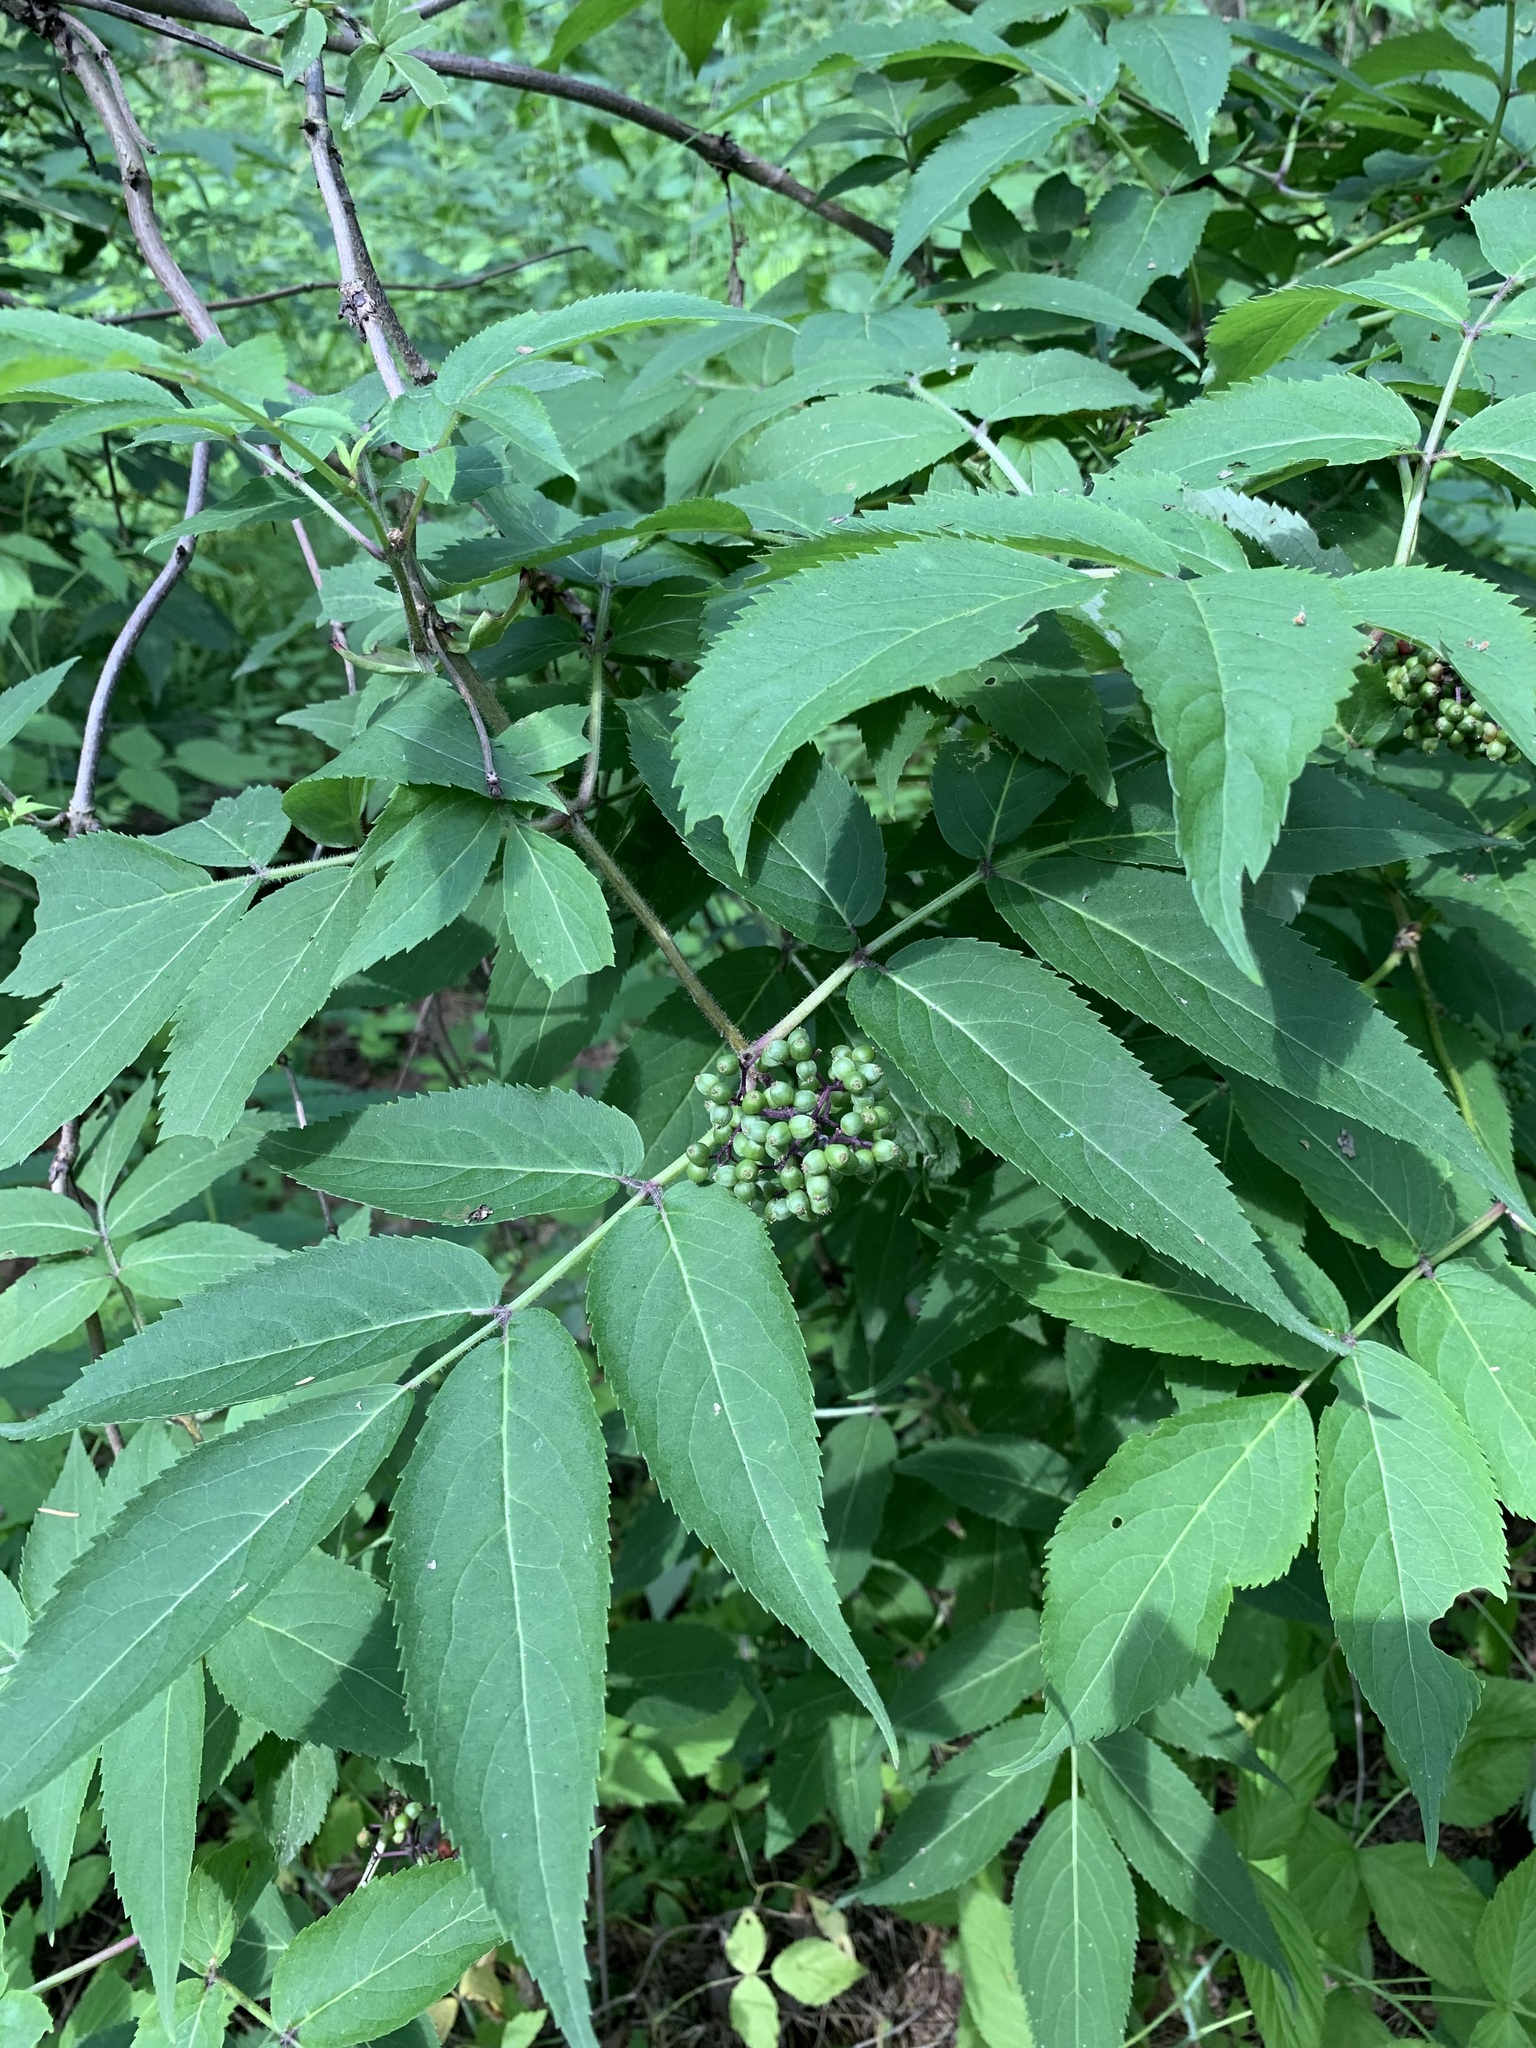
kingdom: Plantae
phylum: Tracheophyta
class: Magnoliopsida
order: Dipsacales
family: Viburnaceae
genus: Sambucus
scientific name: Sambucus sibirica
